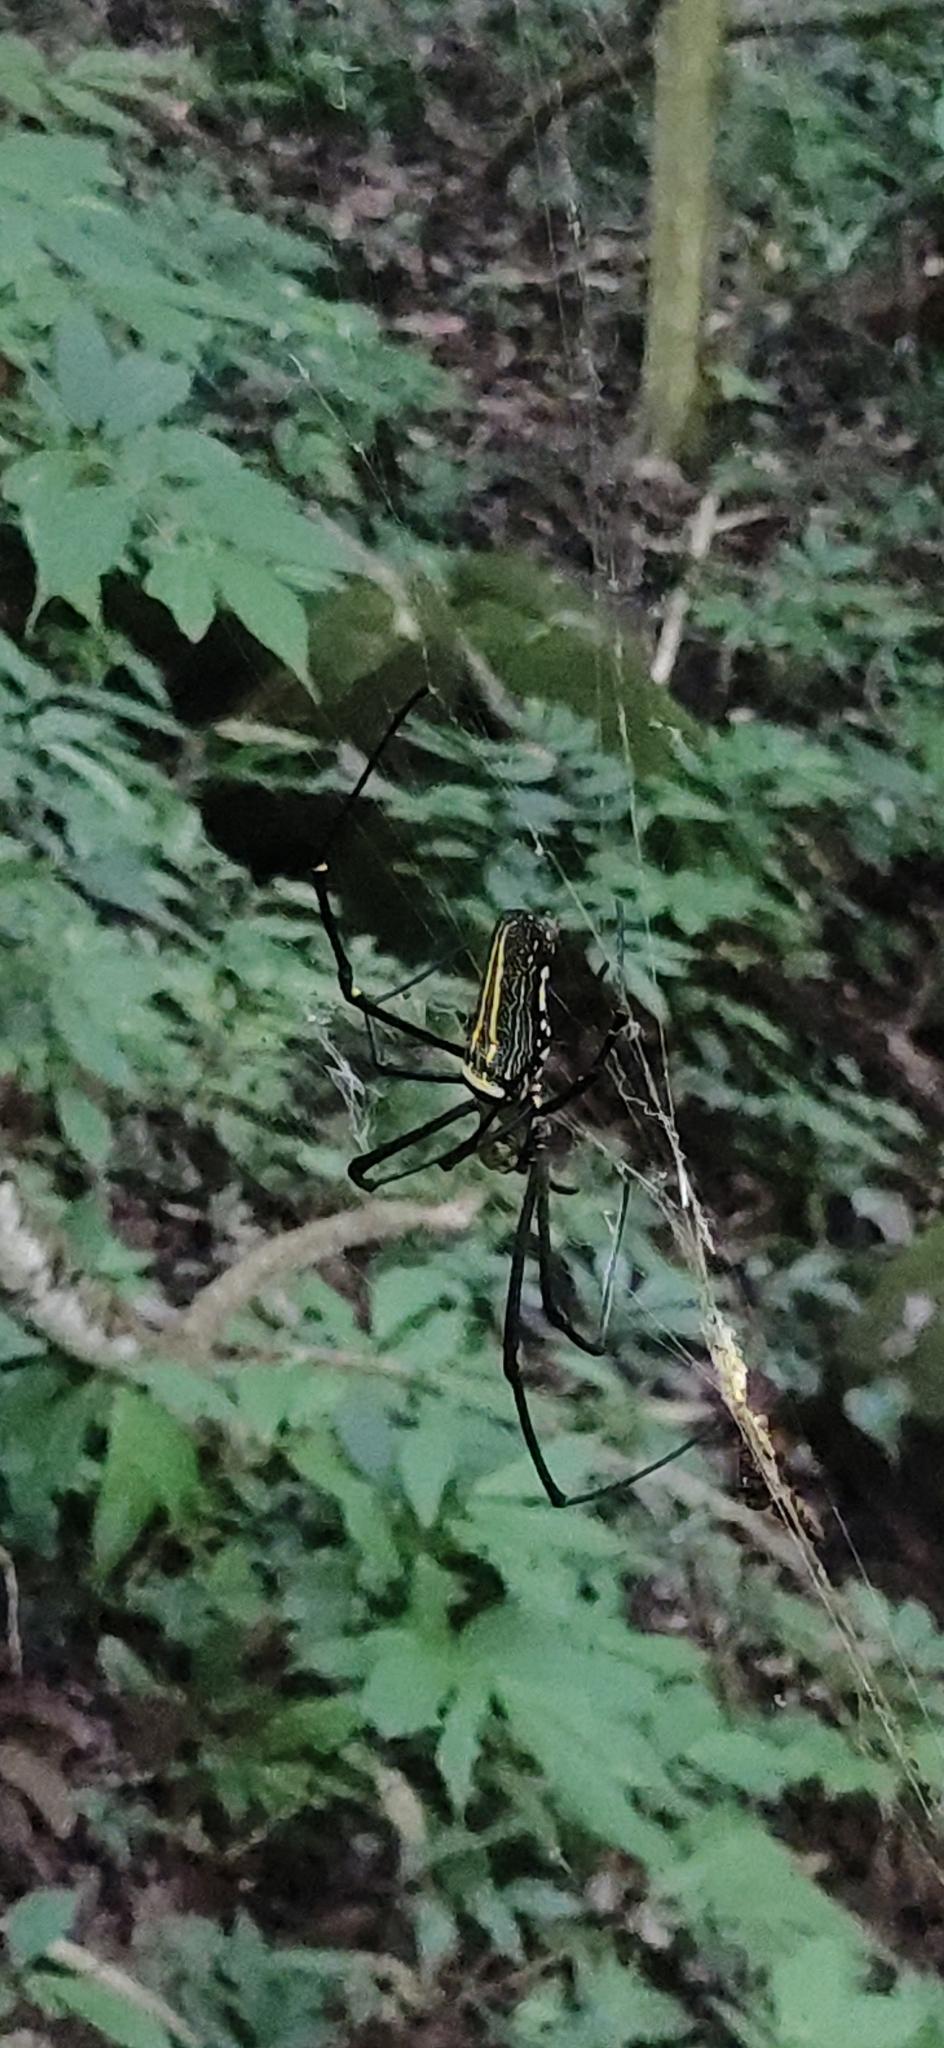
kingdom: Animalia
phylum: Arthropoda
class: Arachnida
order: Araneae
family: Araneidae
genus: Nephila
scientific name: Nephila pilipes
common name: Giant golden orb weaver
